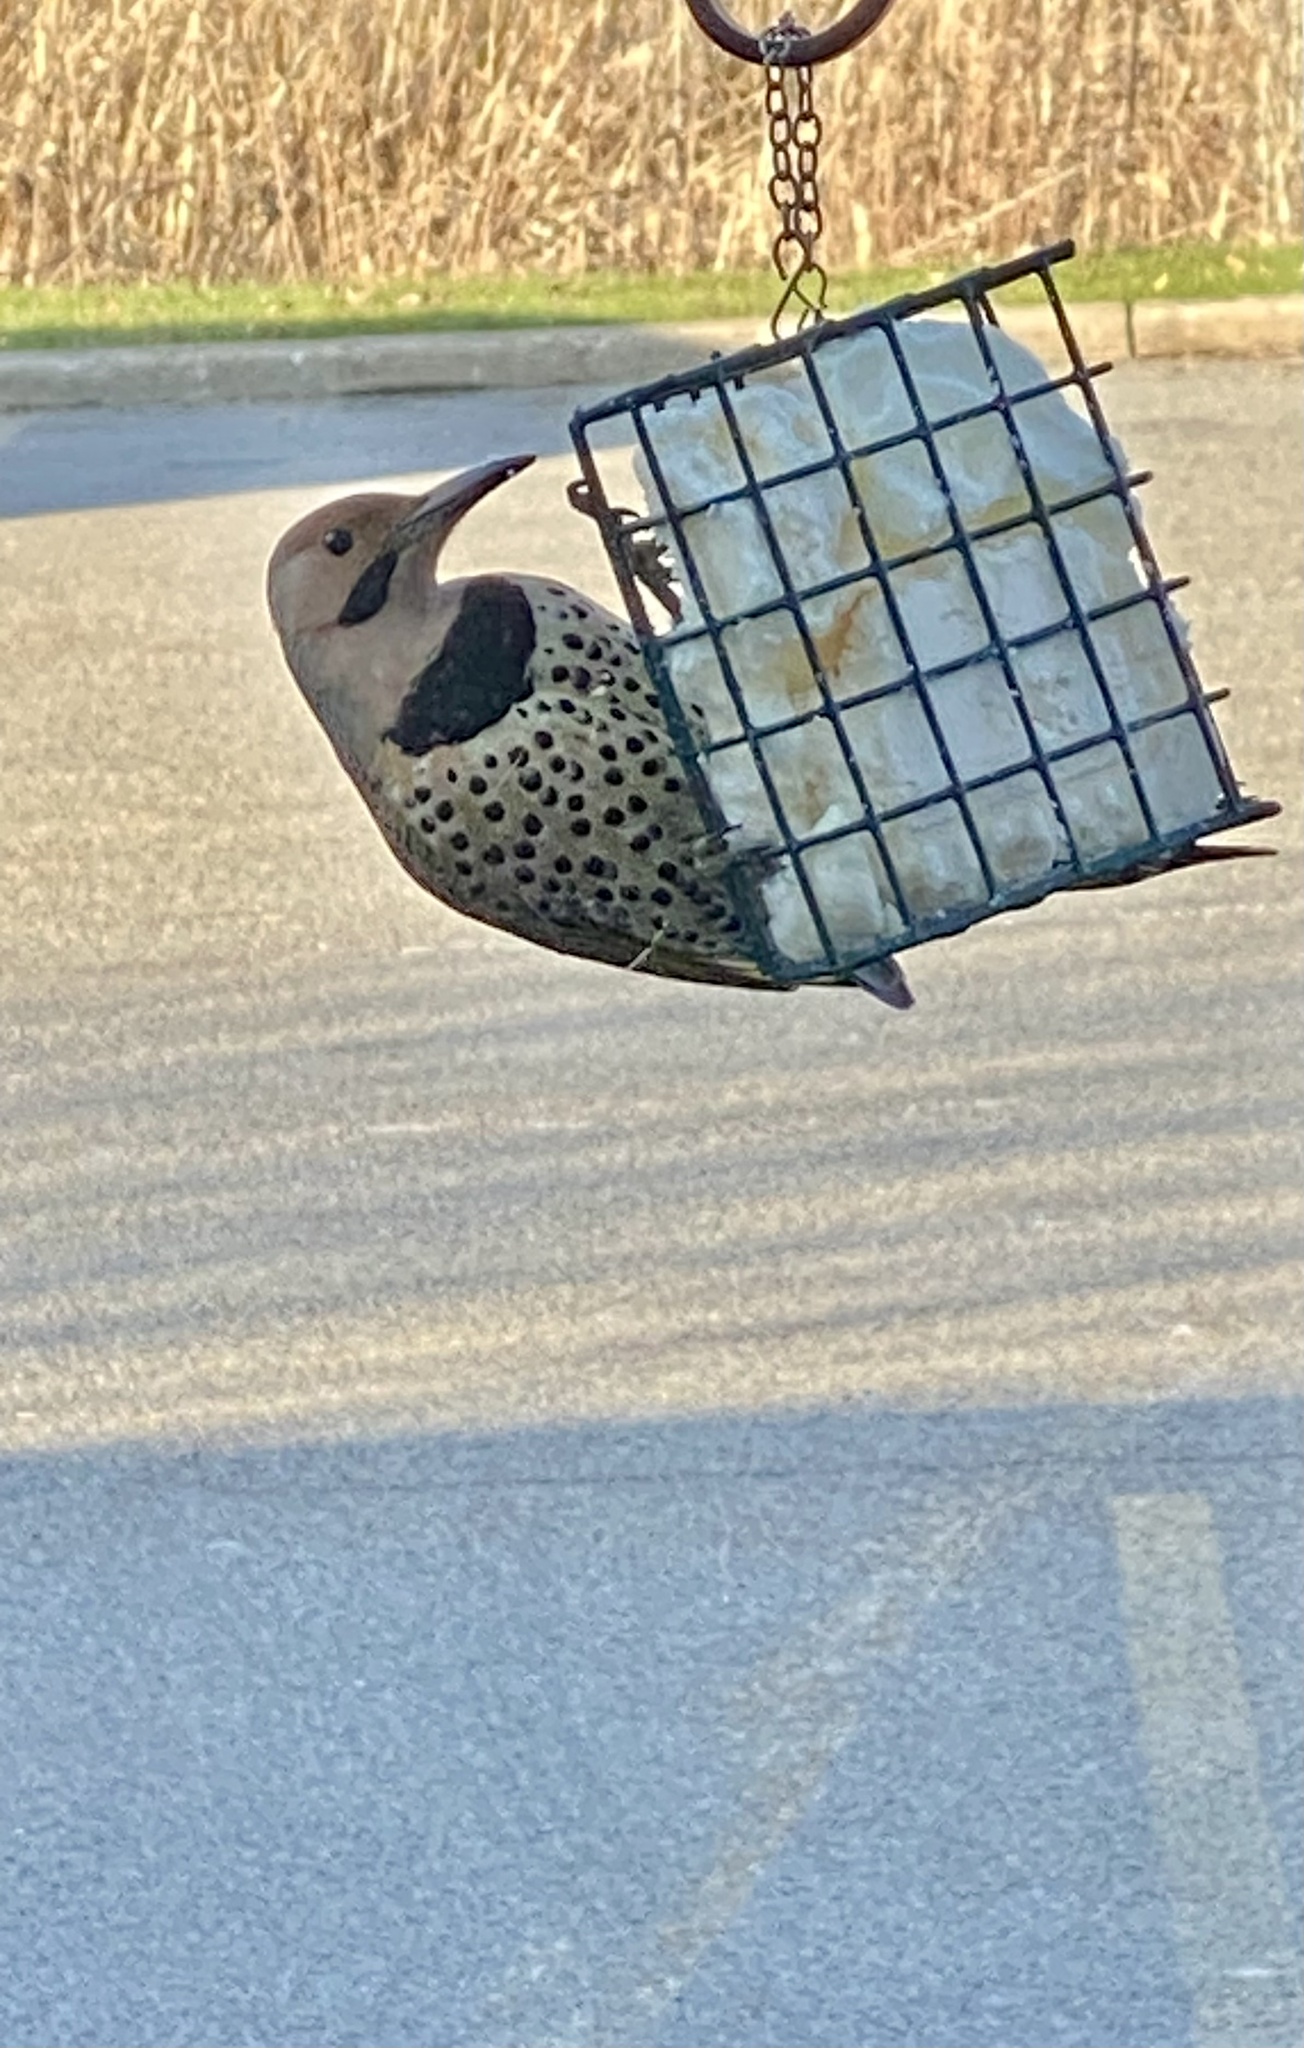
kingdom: Animalia
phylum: Chordata
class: Aves
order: Piciformes
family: Picidae
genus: Colaptes
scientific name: Colaptes auratus
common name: Northern flicker
